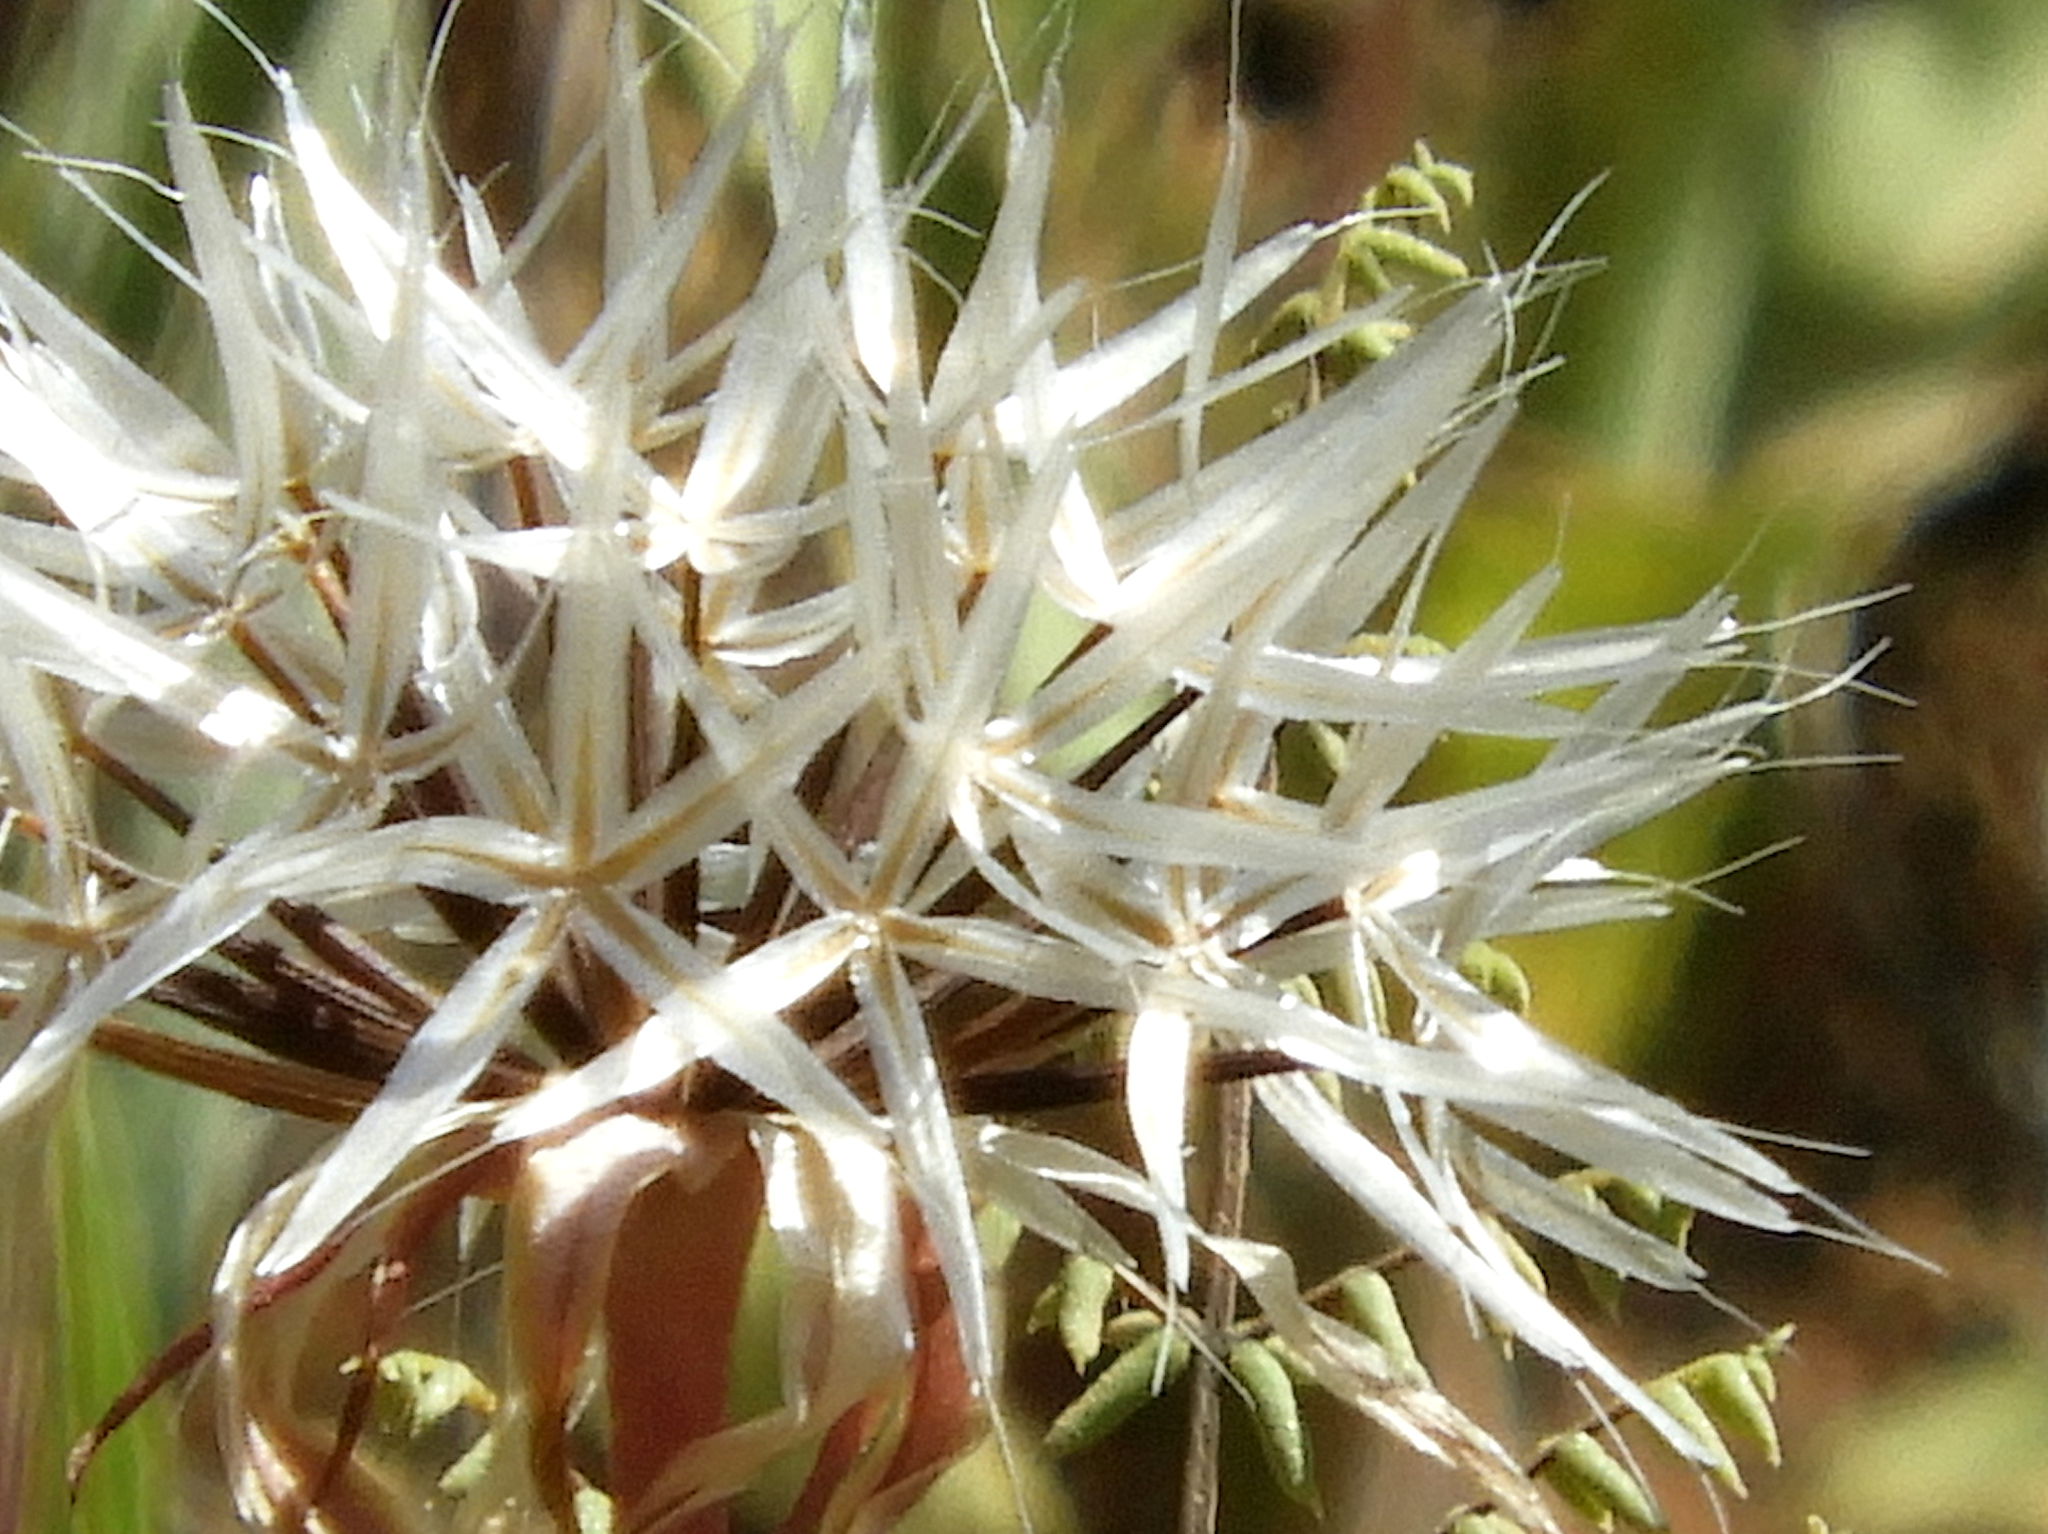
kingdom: Plantae
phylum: Tracheophyta
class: Magnoliopsida
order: Asterales
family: Asteraceae
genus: Microseris
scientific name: Microseris lindleyi
